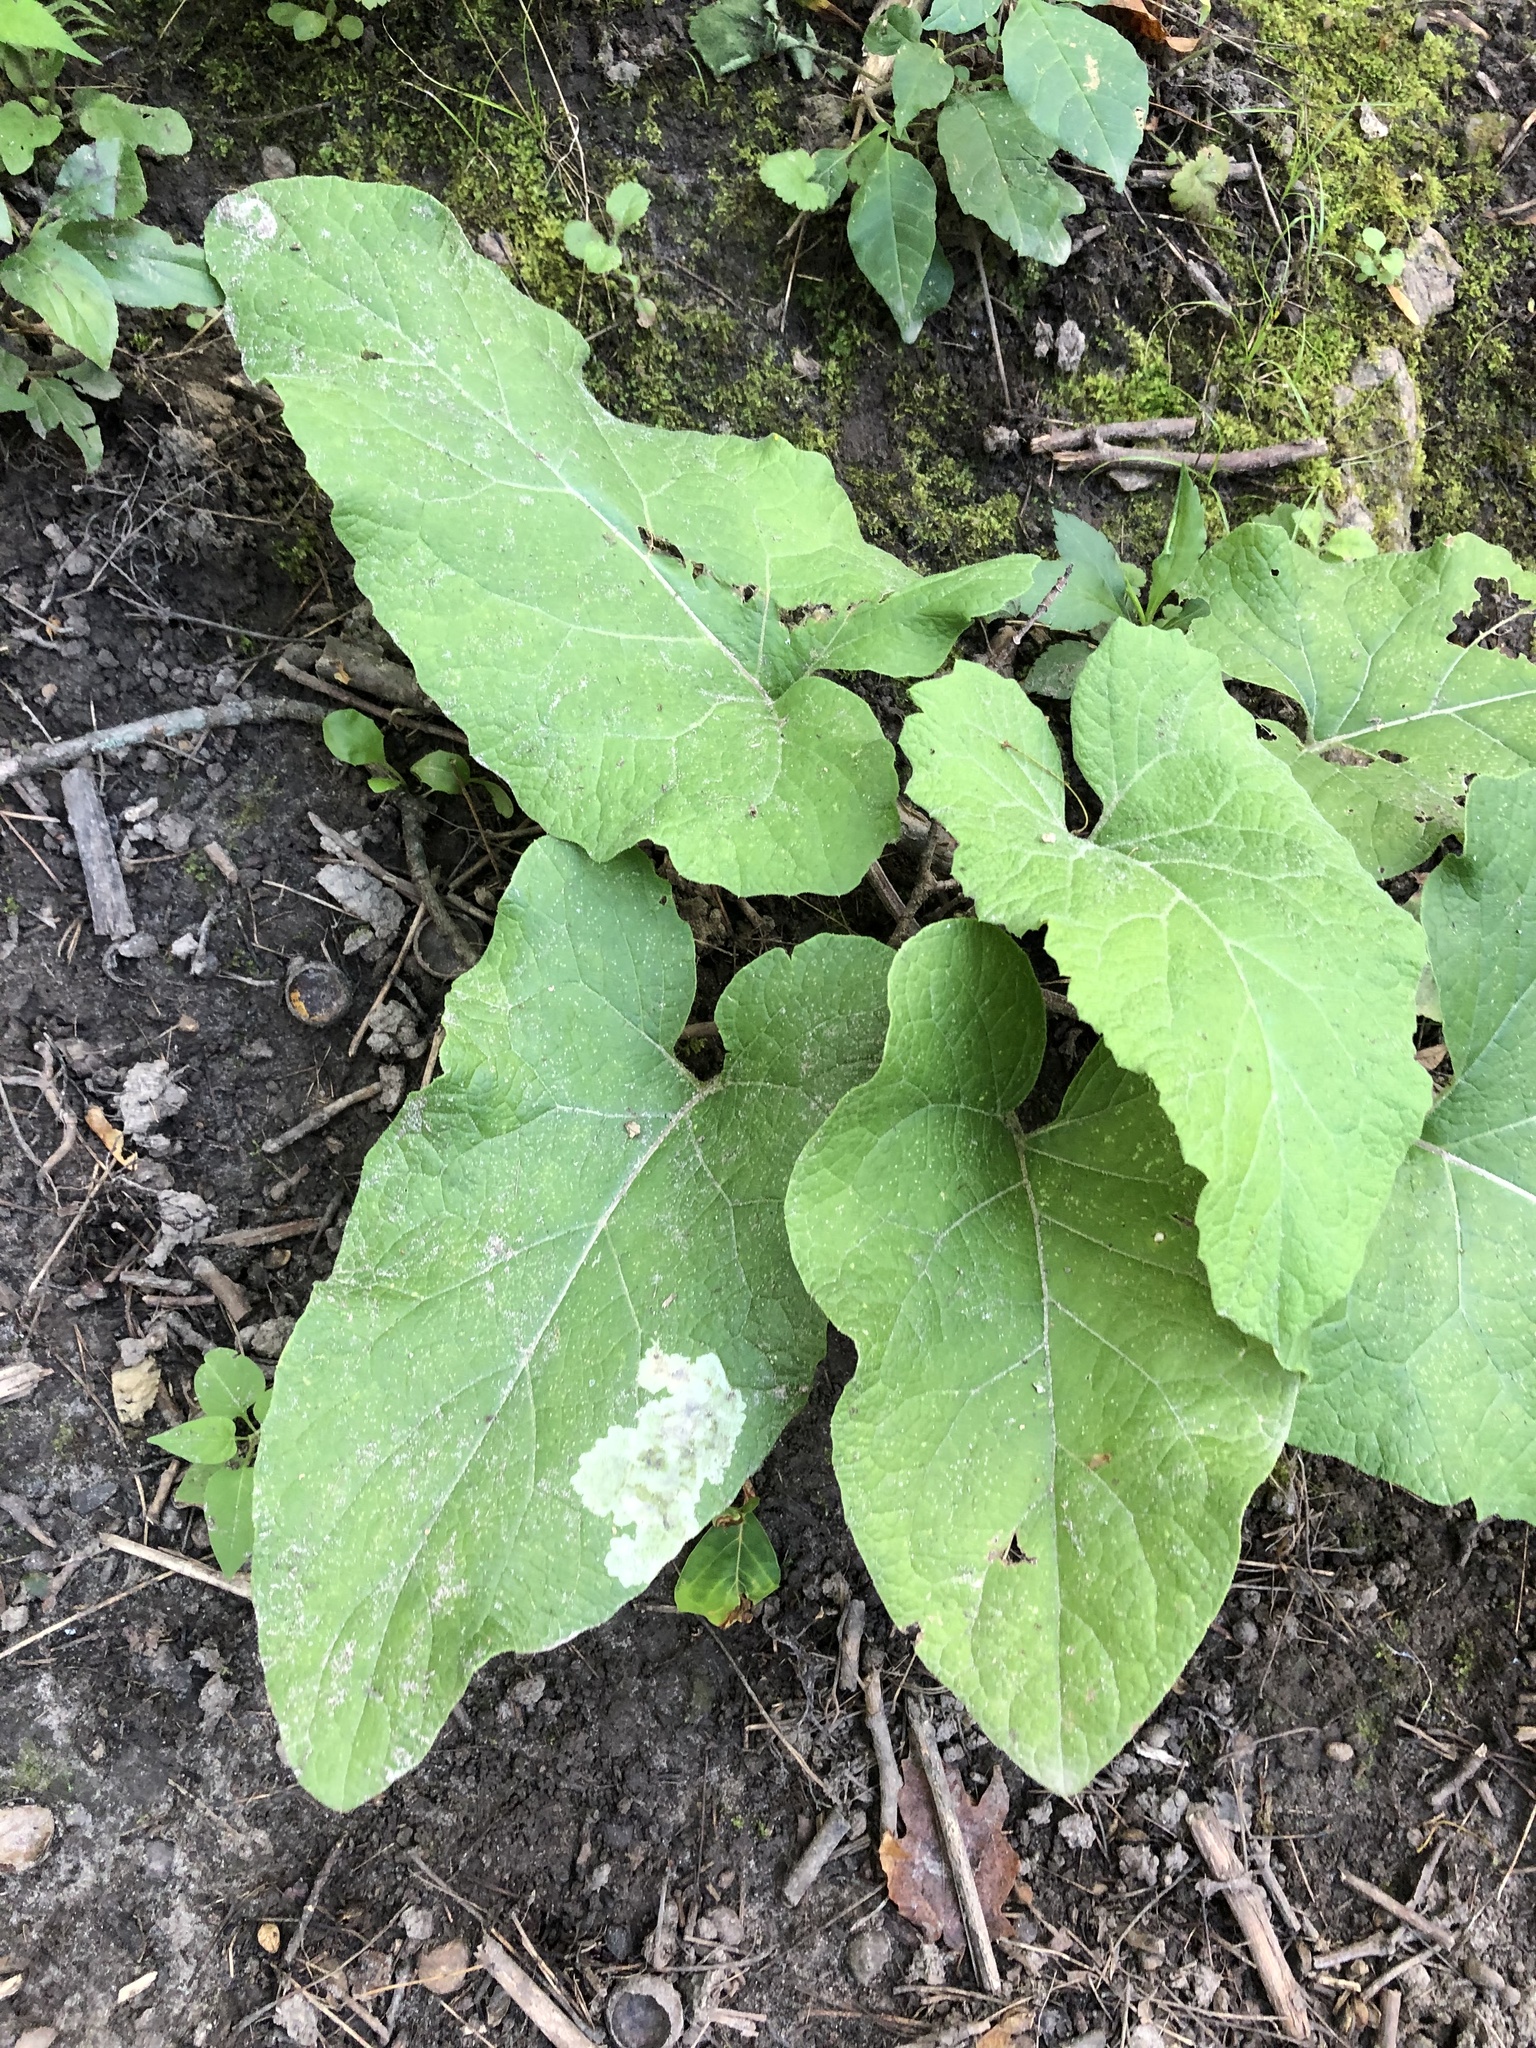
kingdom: Plantae
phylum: Tracheophyta
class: Magnoliopsida
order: Asterales
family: Asteraceae
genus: Arctium
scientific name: Arctium minus
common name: Lesser burdock
